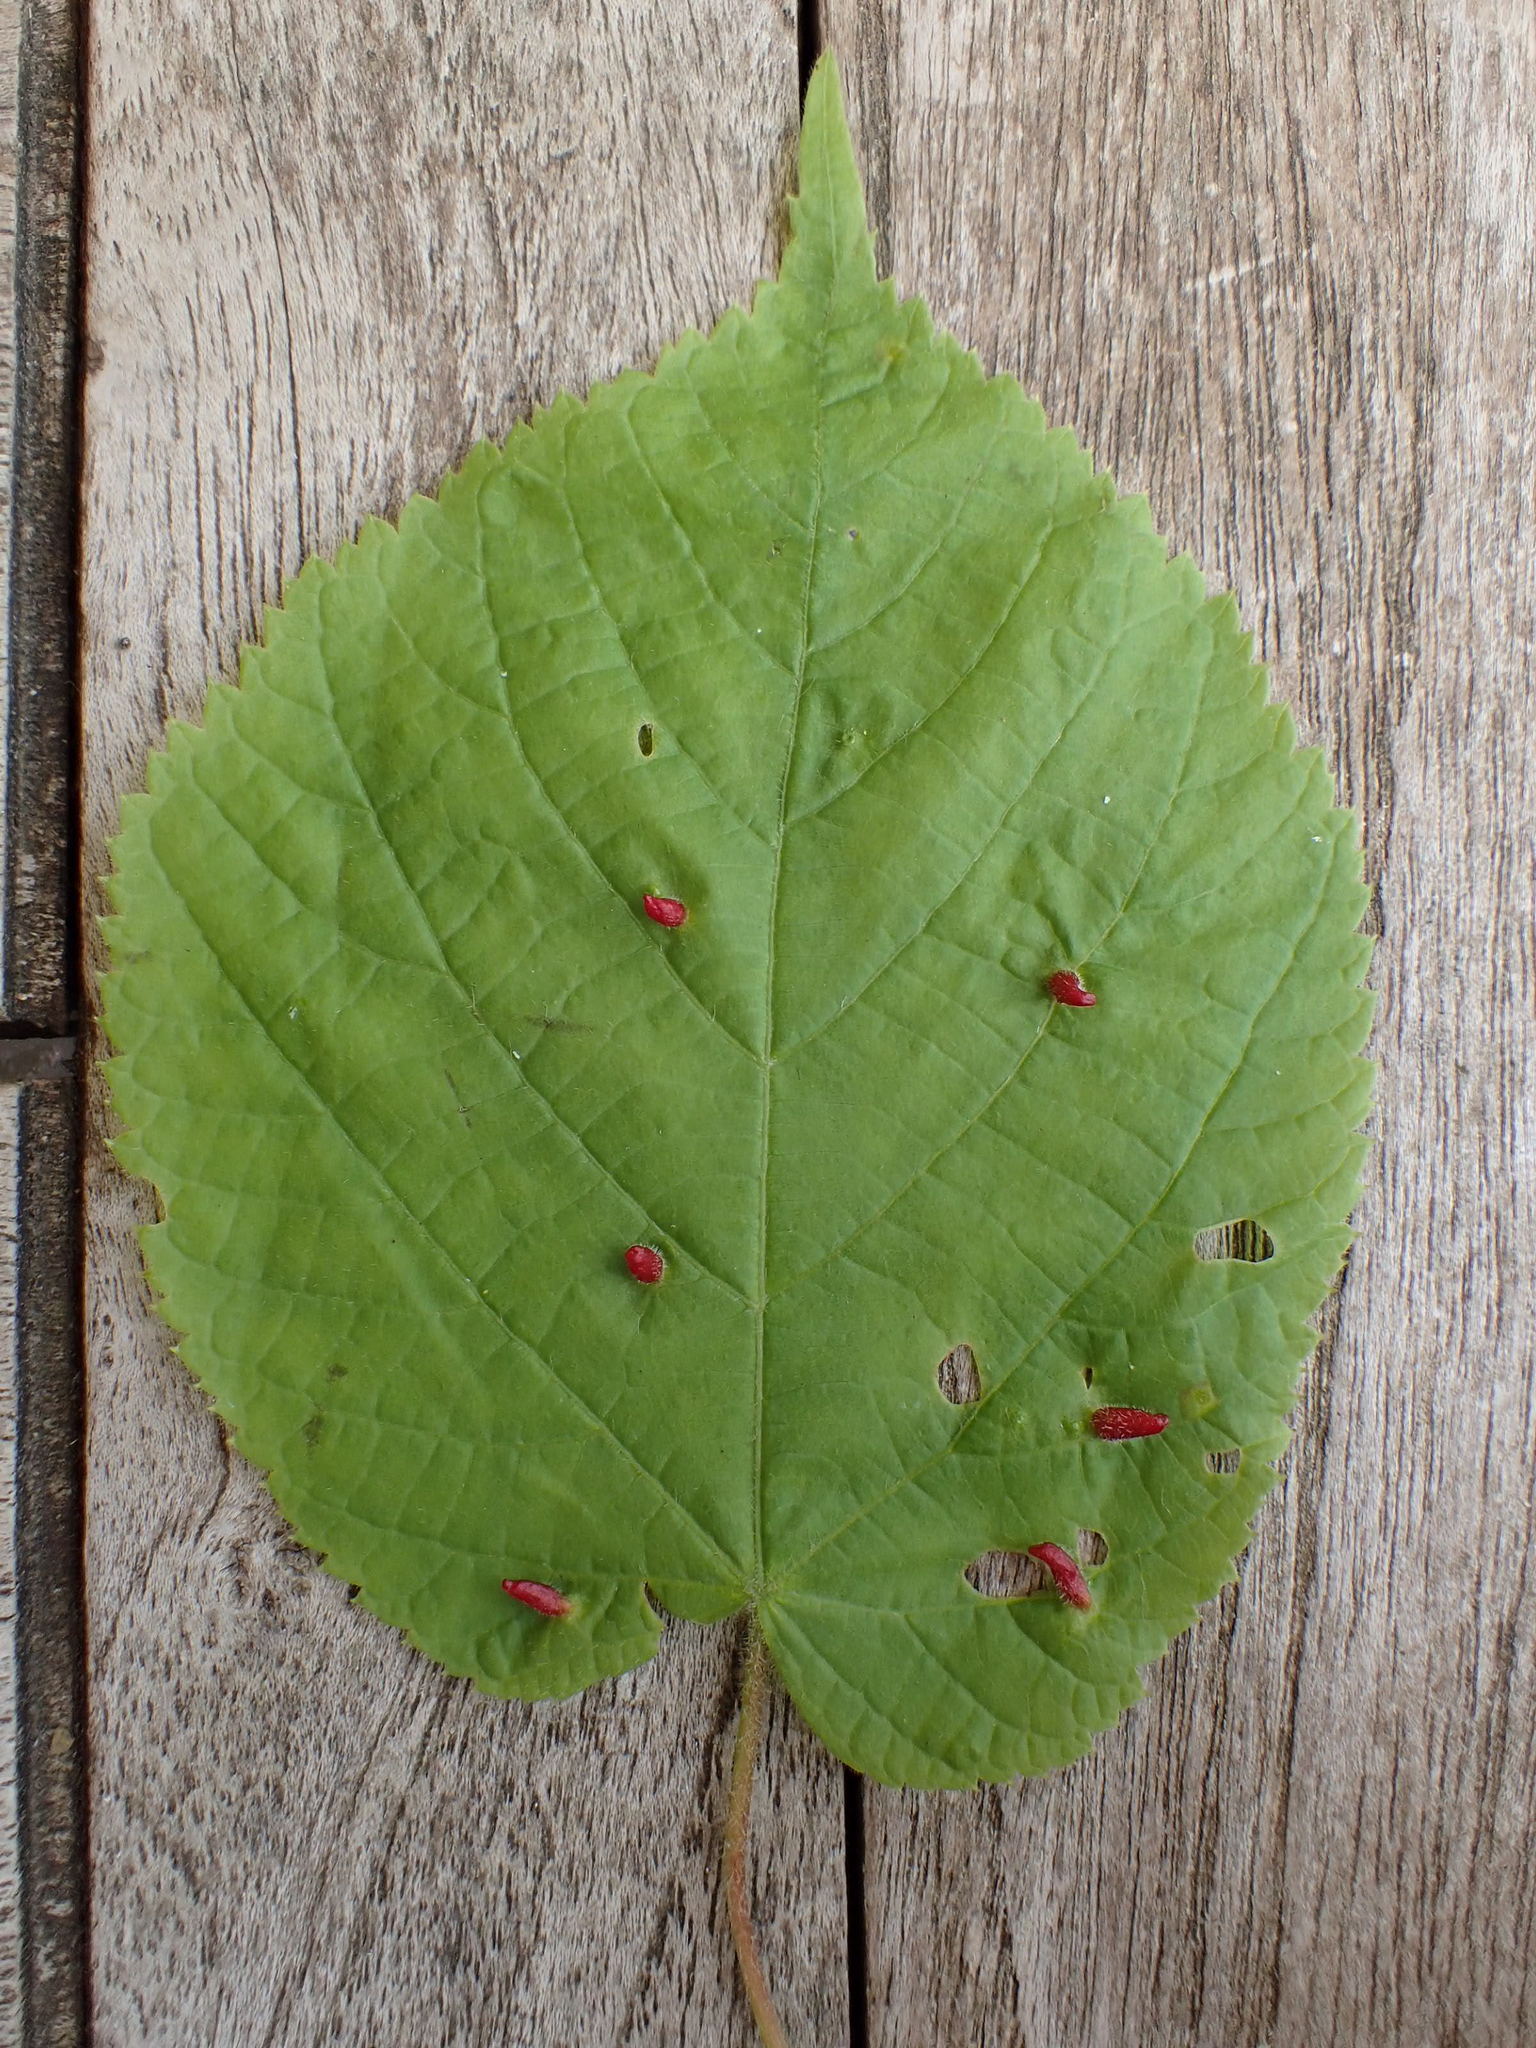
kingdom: Animalia
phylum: Arthropoda
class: Arachnida
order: Trombidiformes
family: Eriophyidae
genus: Eriophyes
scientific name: Eriophyes tiliae
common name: Red nail gall mite
